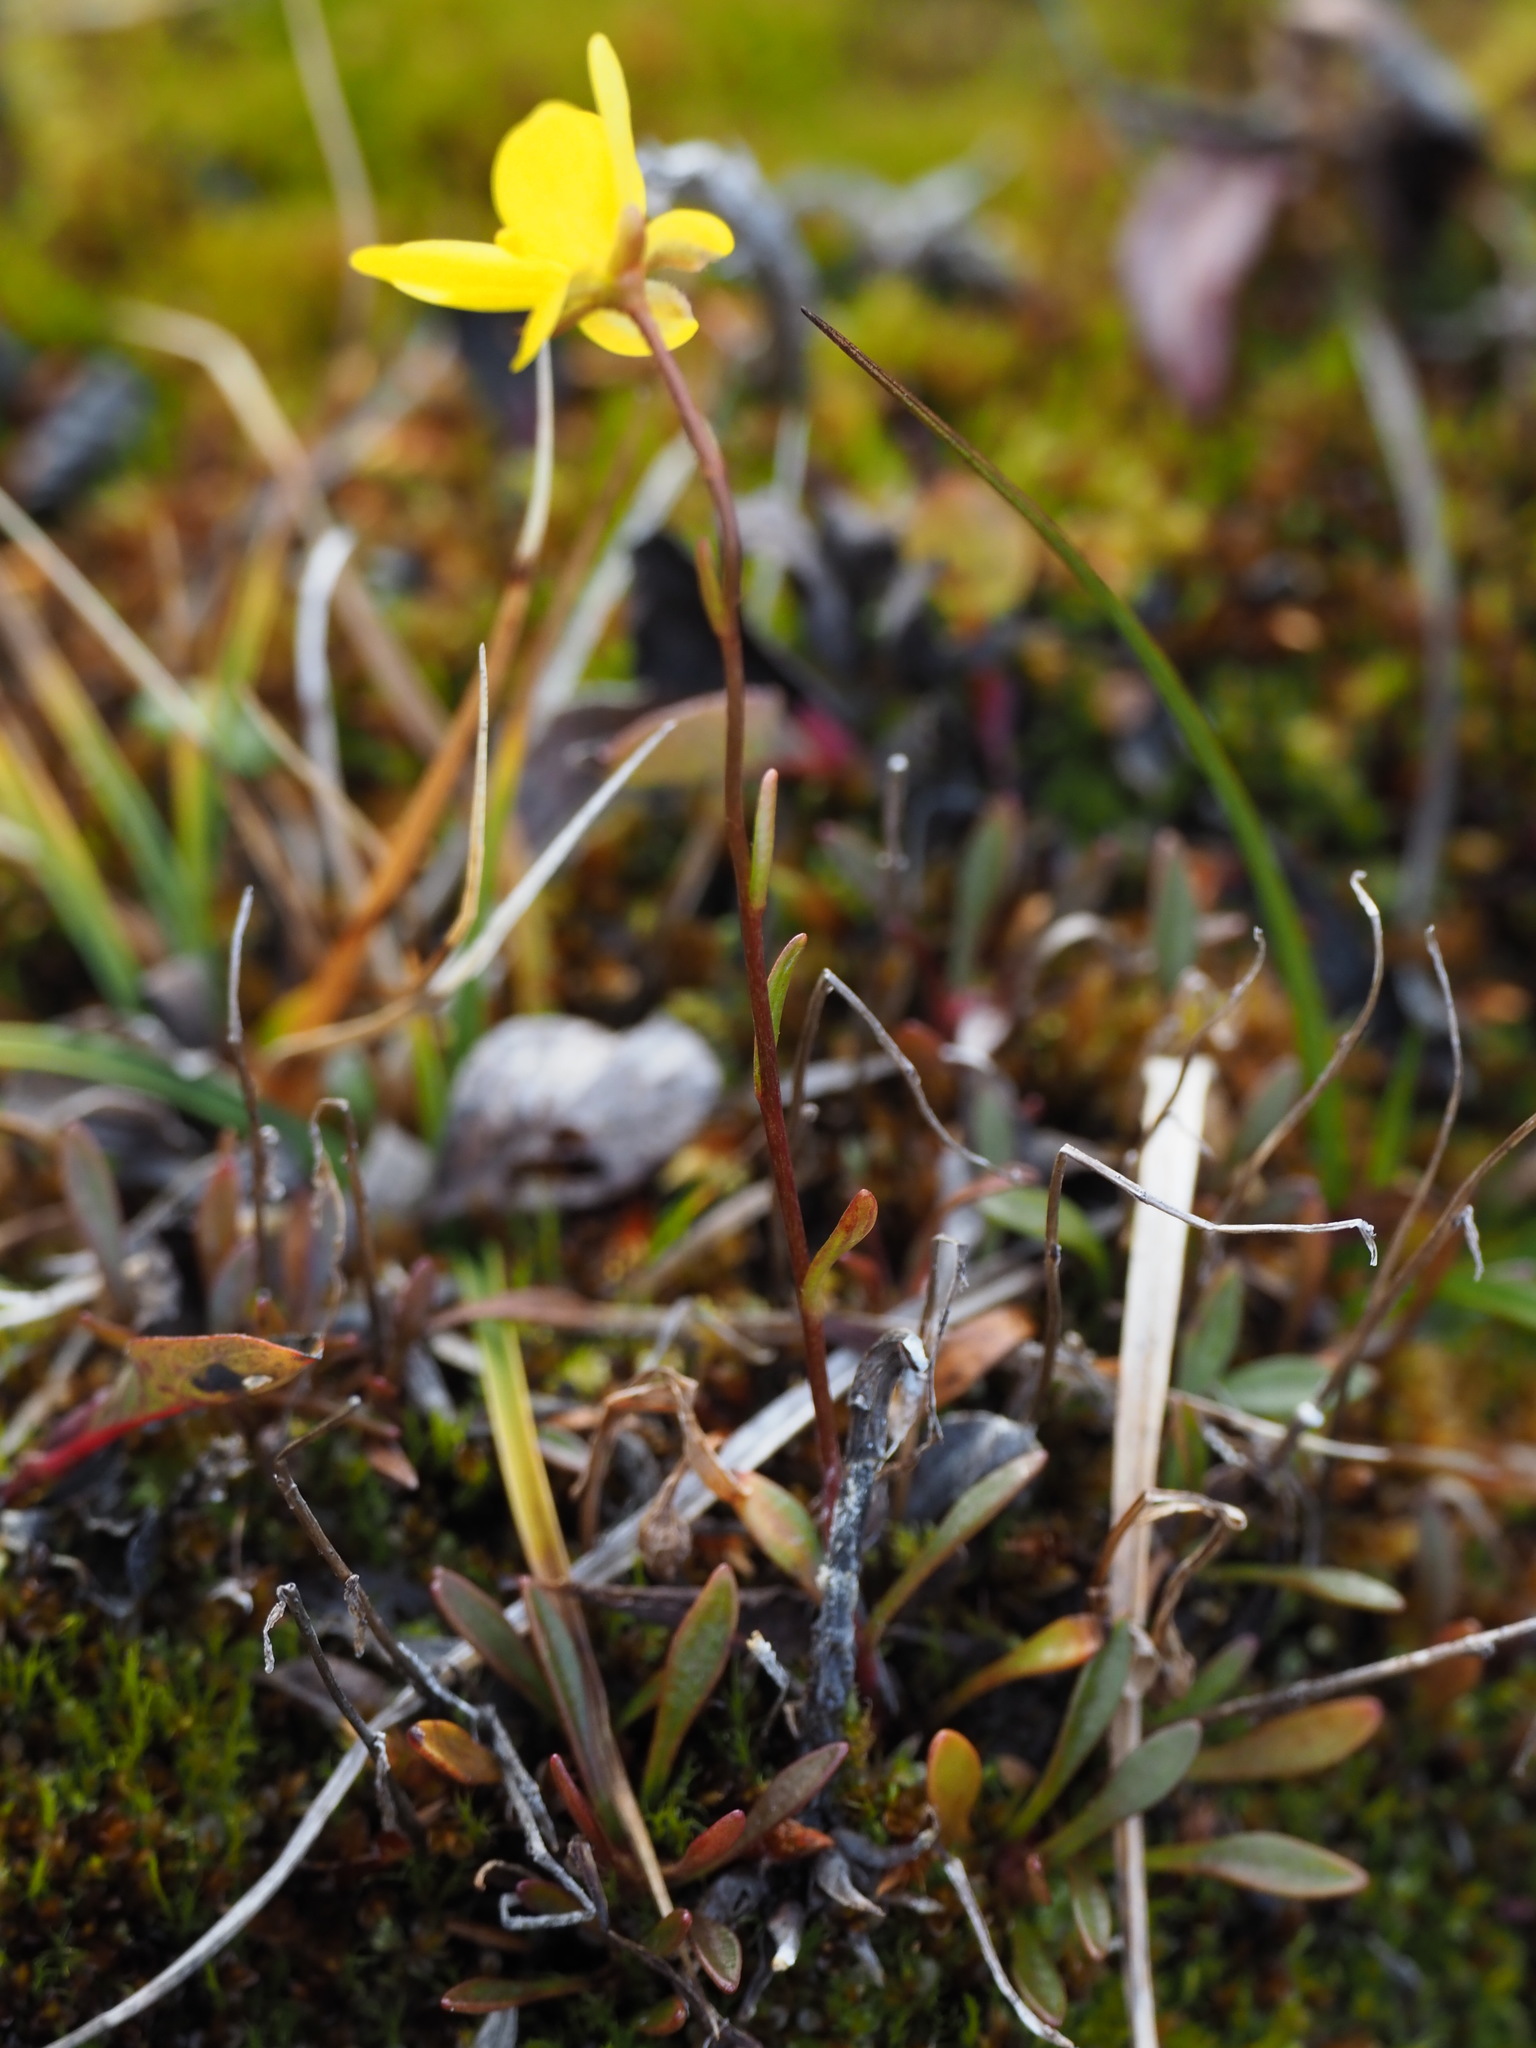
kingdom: Plantae
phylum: Tracheophyta
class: Magnoliopsida
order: Saxifragales
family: Saxifragaceae
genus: Saxifraga
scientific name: Saxifraga hirculus
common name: Yellow marsh saxifrage
